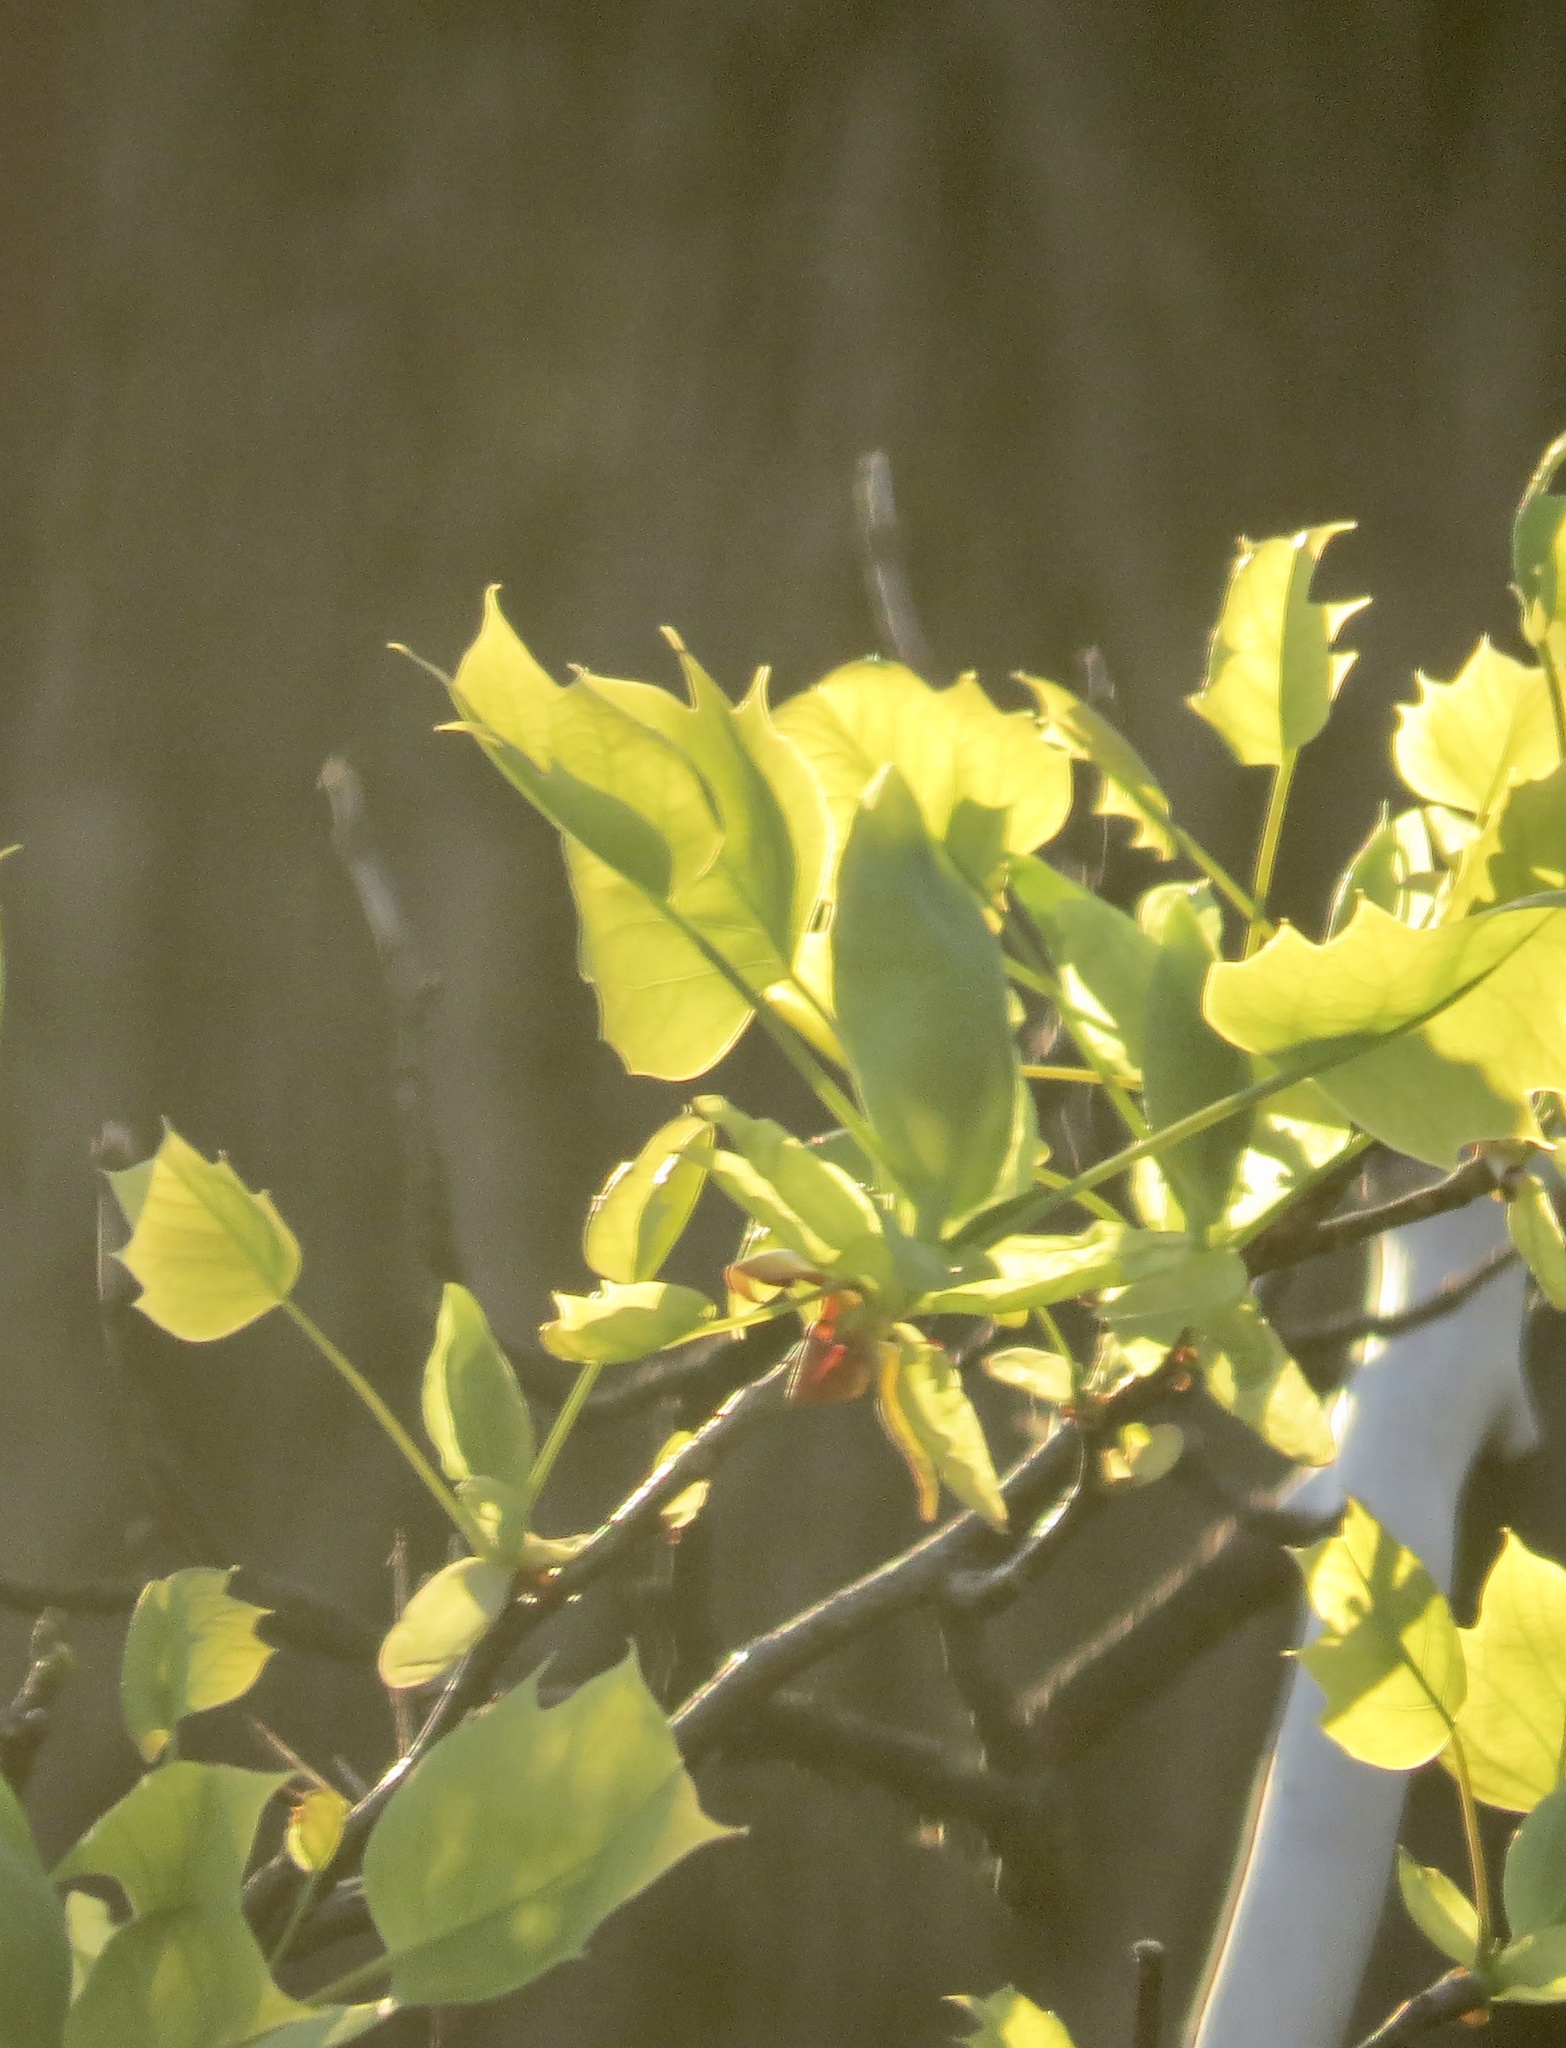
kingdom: Plantae
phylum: Tracheophyta
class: Magnoliopsida
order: Magnoliales
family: Magnoliaceae
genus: Liriodendron
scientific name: Liriodendron tulipifera
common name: Tulip tree
